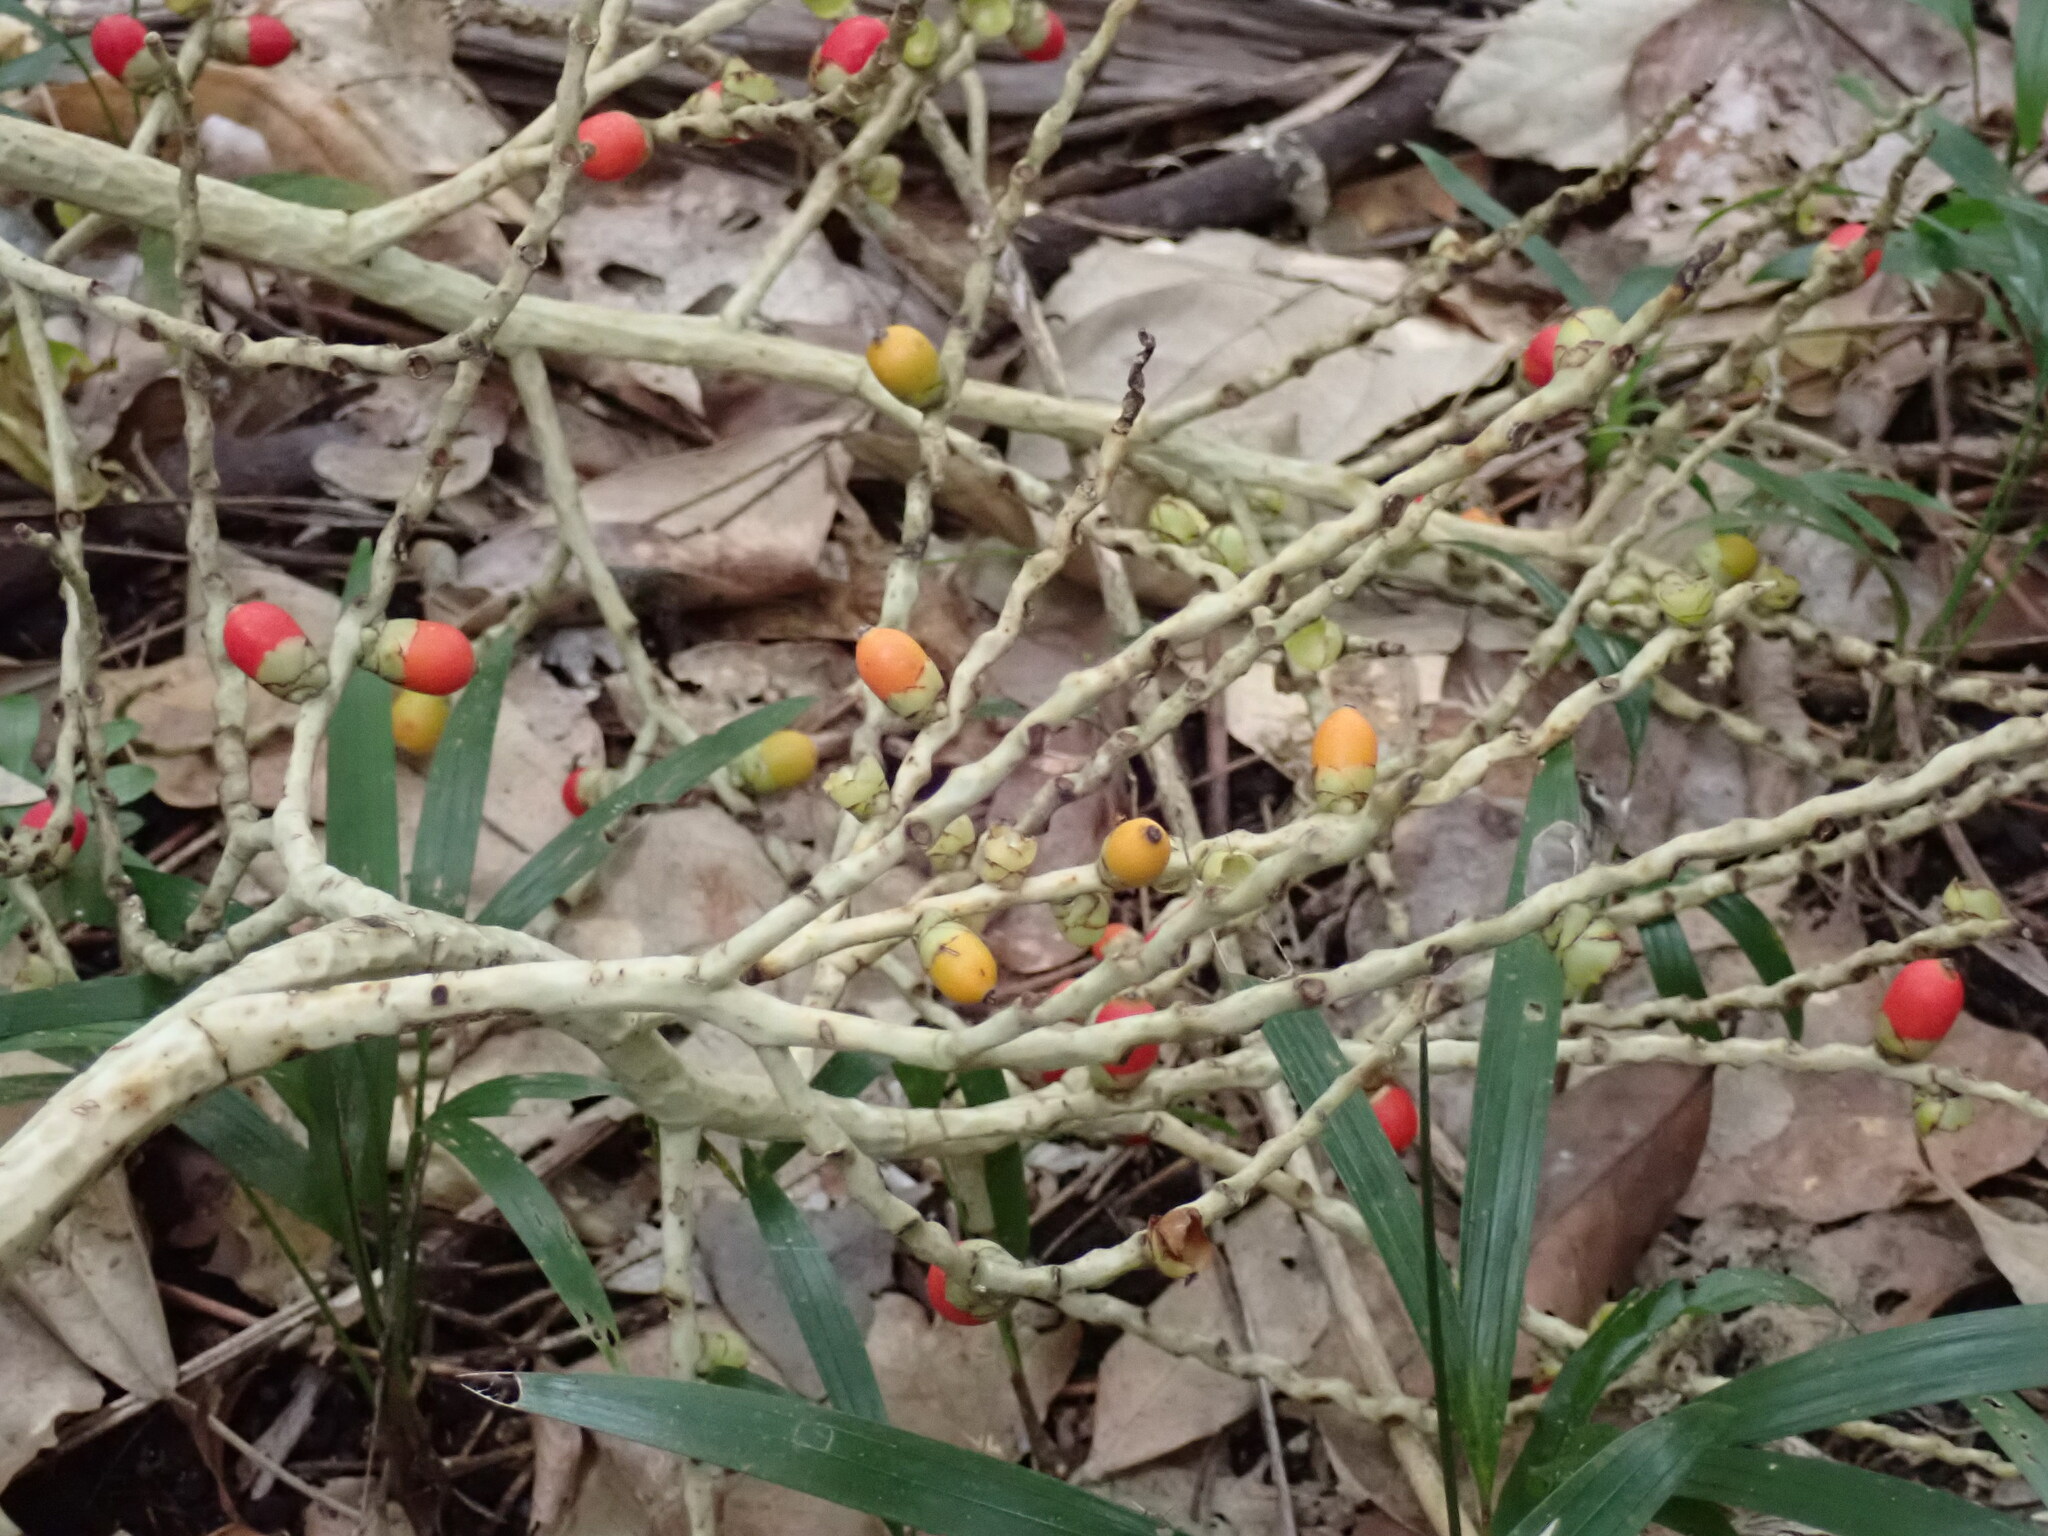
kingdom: Plantae
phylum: Tracheophyta
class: Liliopsida
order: Arecales
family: Arecaceae
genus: Clinostigma
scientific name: Clinostigma harlandii
